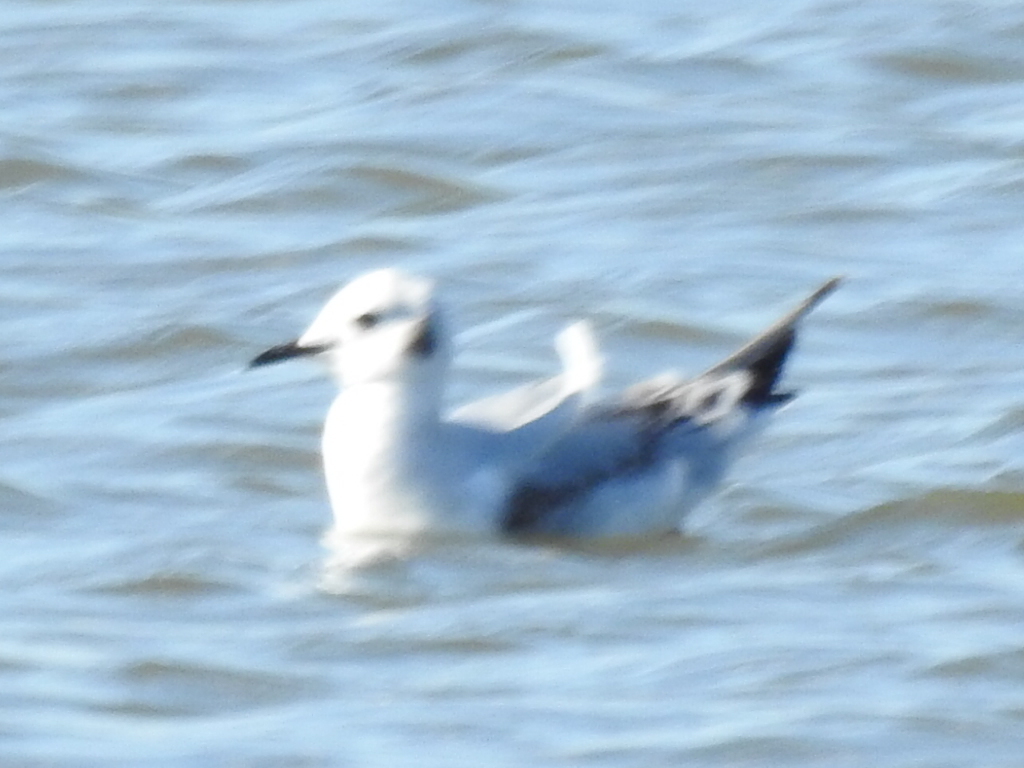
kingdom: Animalia
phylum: Chordata
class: Aves
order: Charadriiformes
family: Laridae
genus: Chroicocephalus
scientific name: Chroicocephalus philadelphia
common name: Bonaparte's gull
